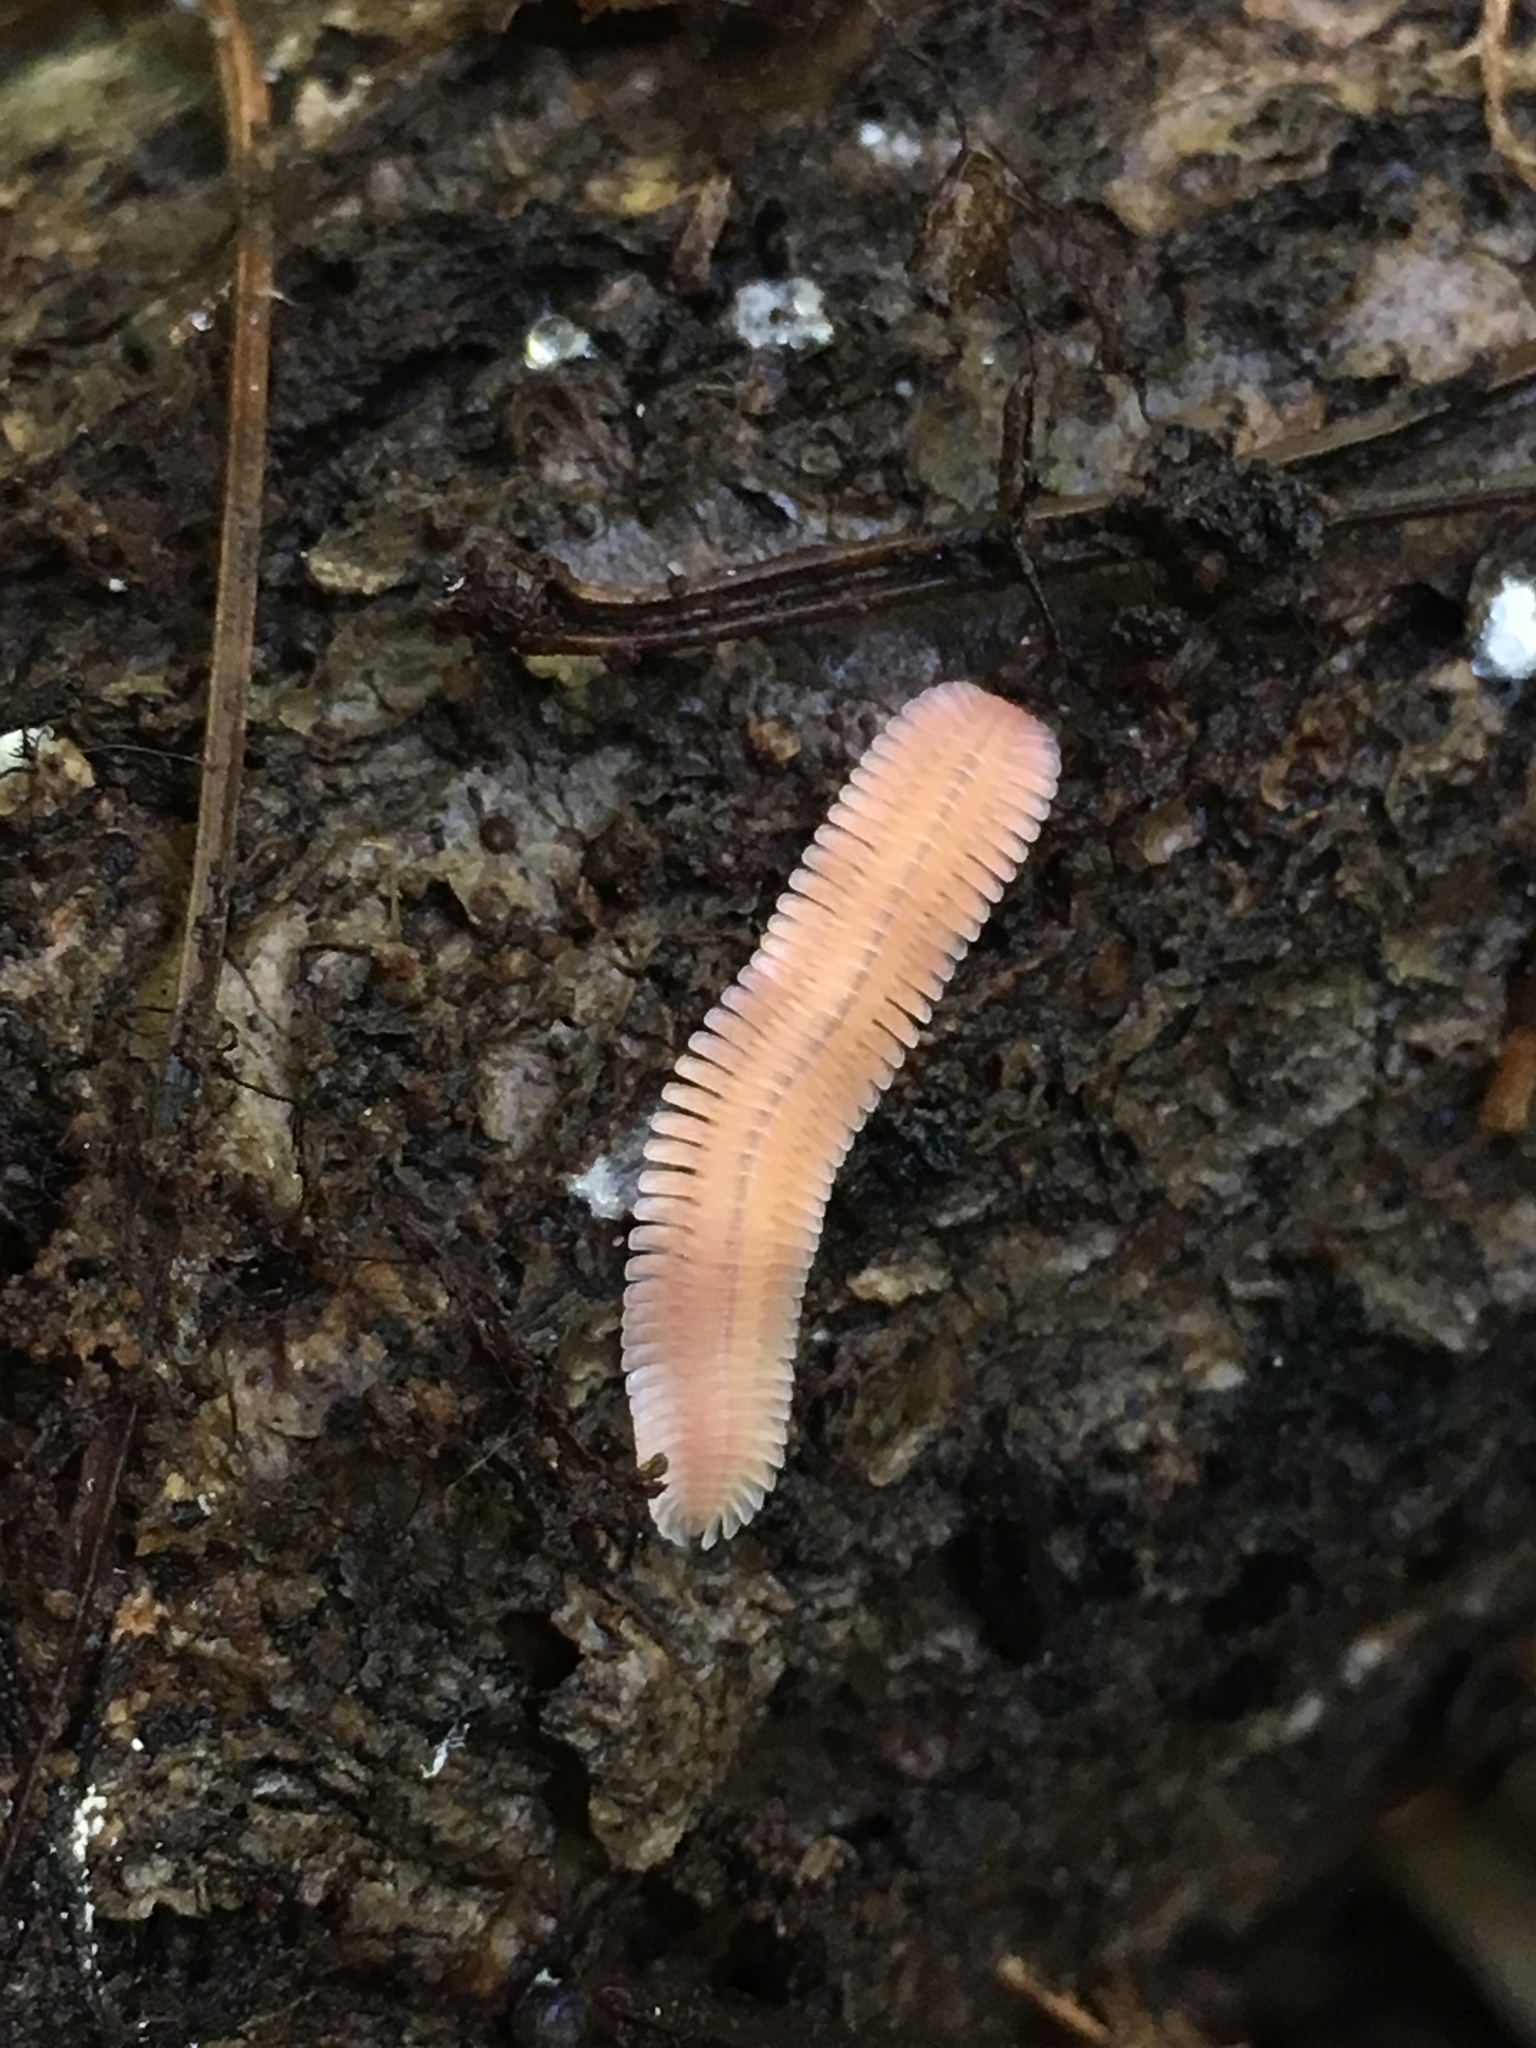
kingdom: Animalia
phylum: Arthropoda
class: Diplopoda
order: Platydesmida
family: Andrognathidae
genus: Brachycybe
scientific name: Brachycybe lecontii
